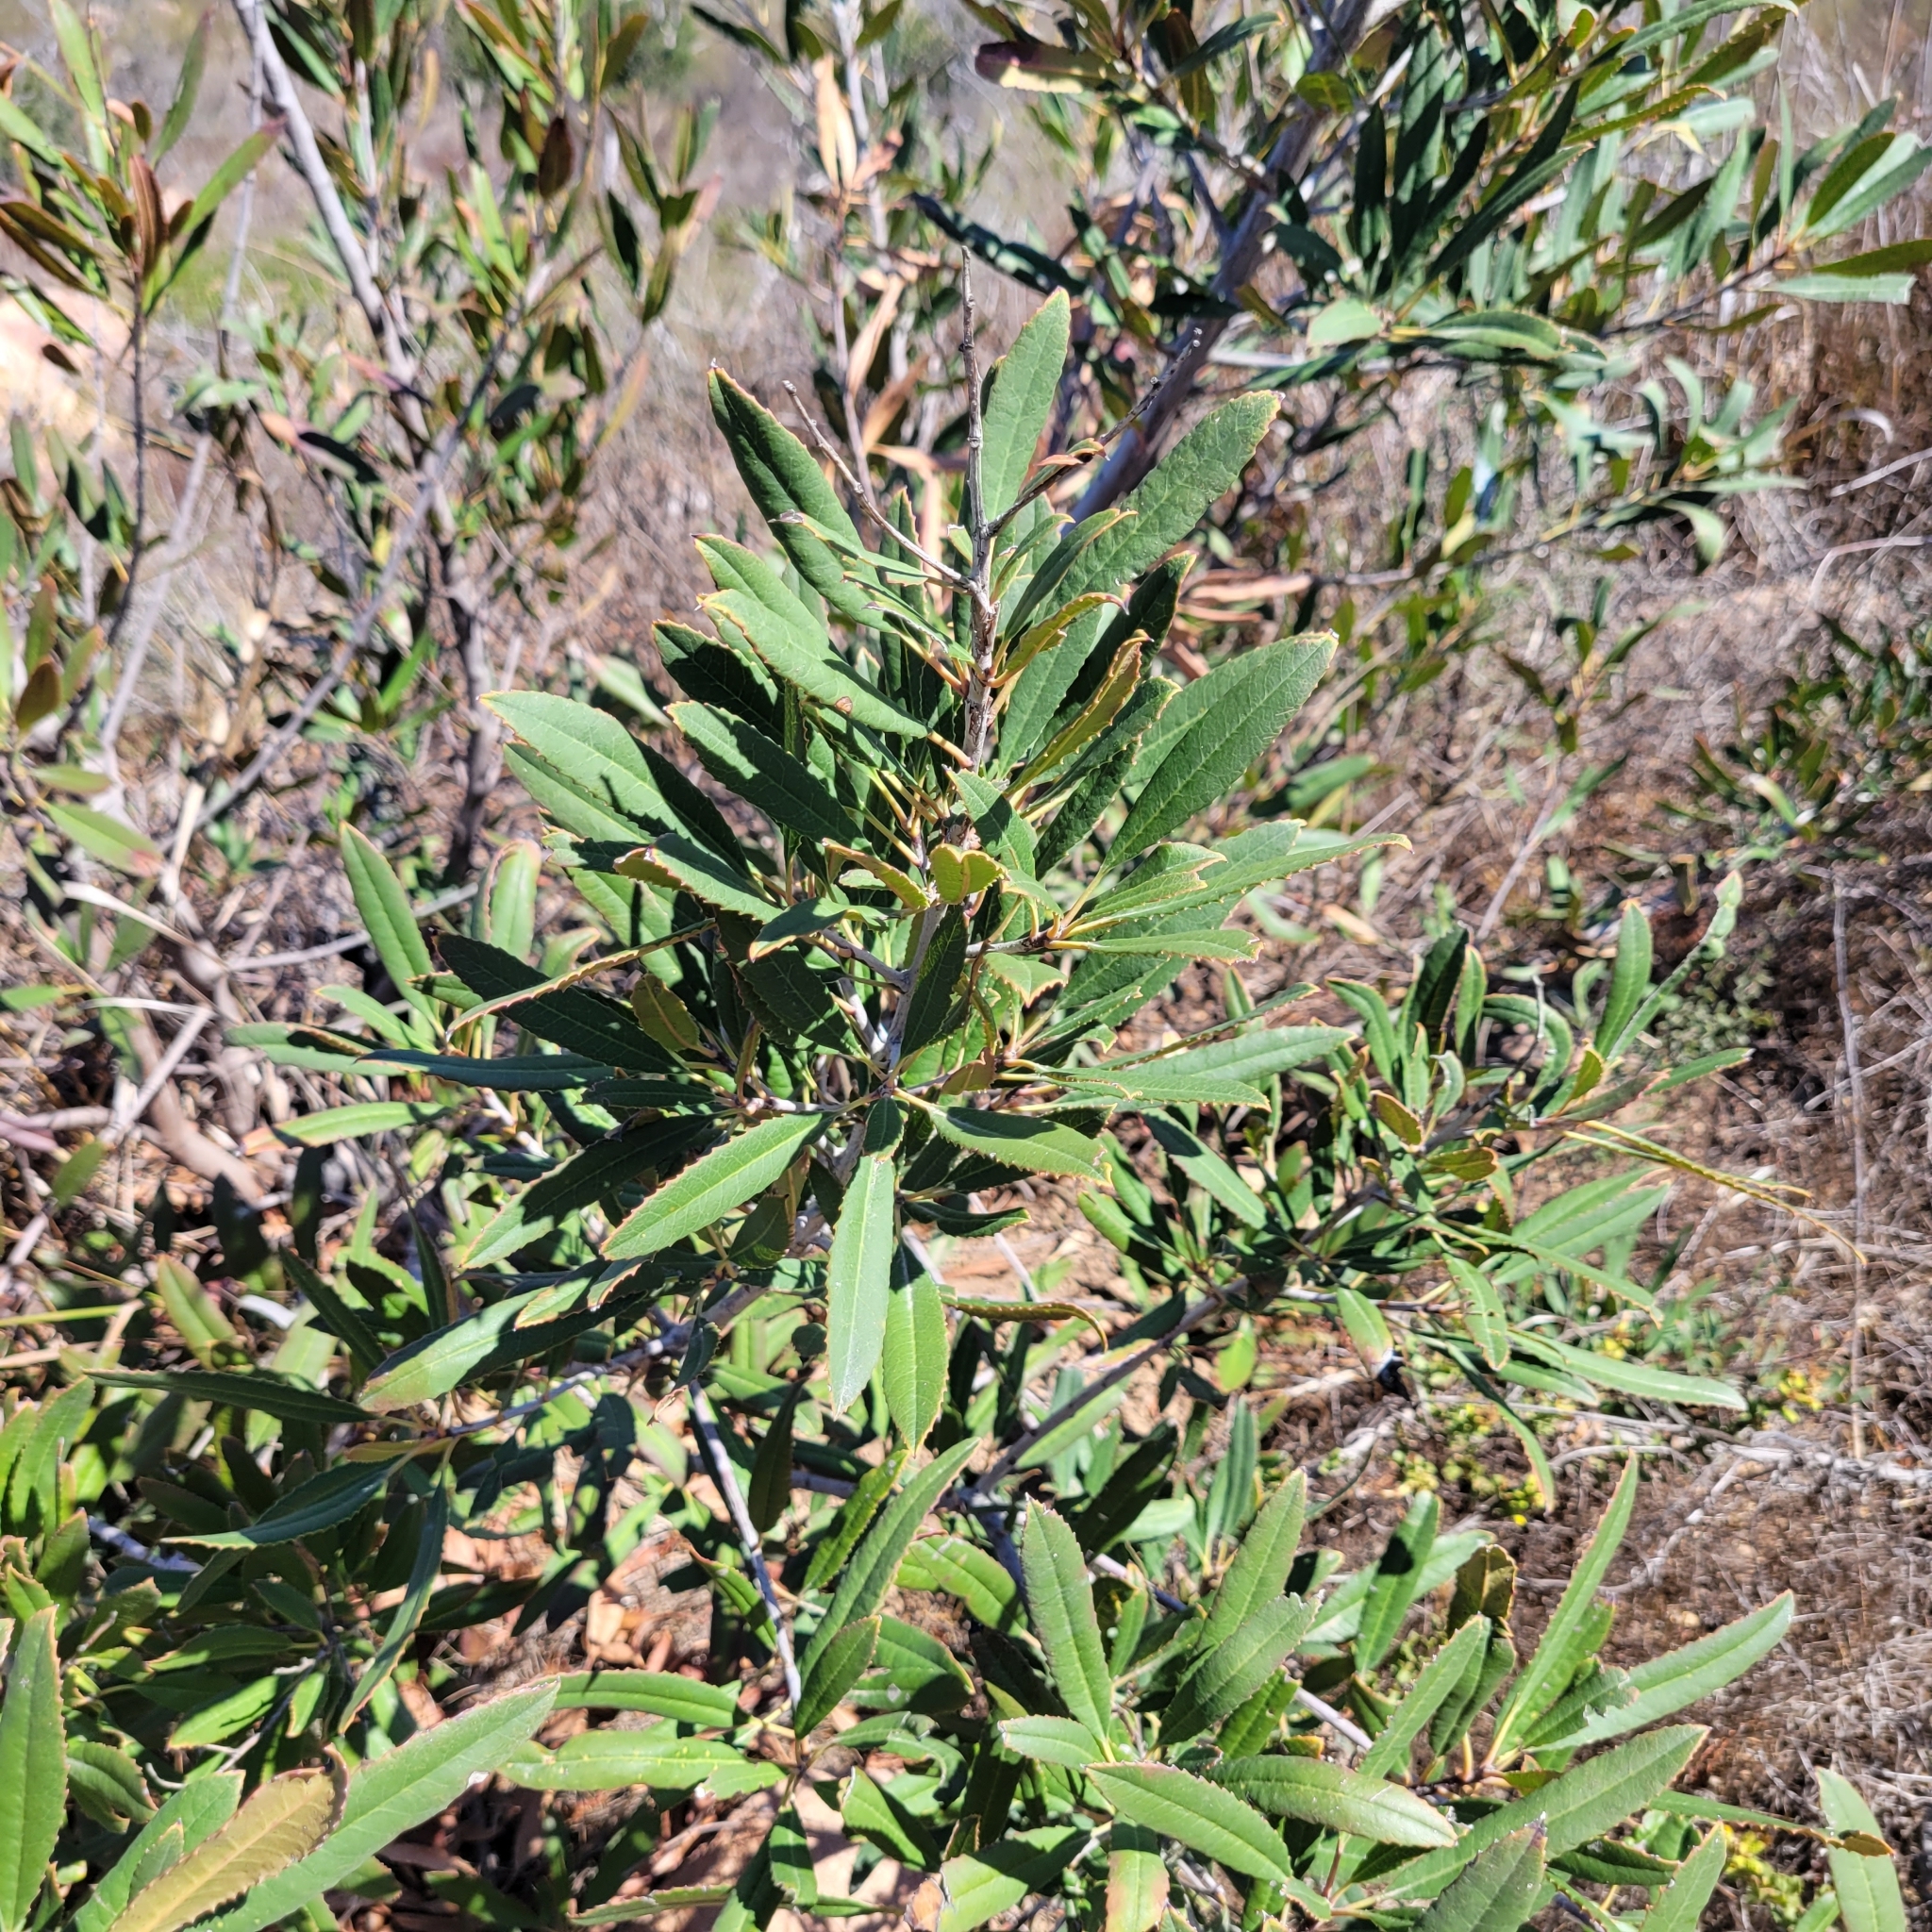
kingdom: Plantae
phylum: Tracheophyta
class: Magnoliopsida
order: Rosales
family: Rosaceae
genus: Heteromeles
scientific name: Heteromeles arbutifolia
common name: California-holly
